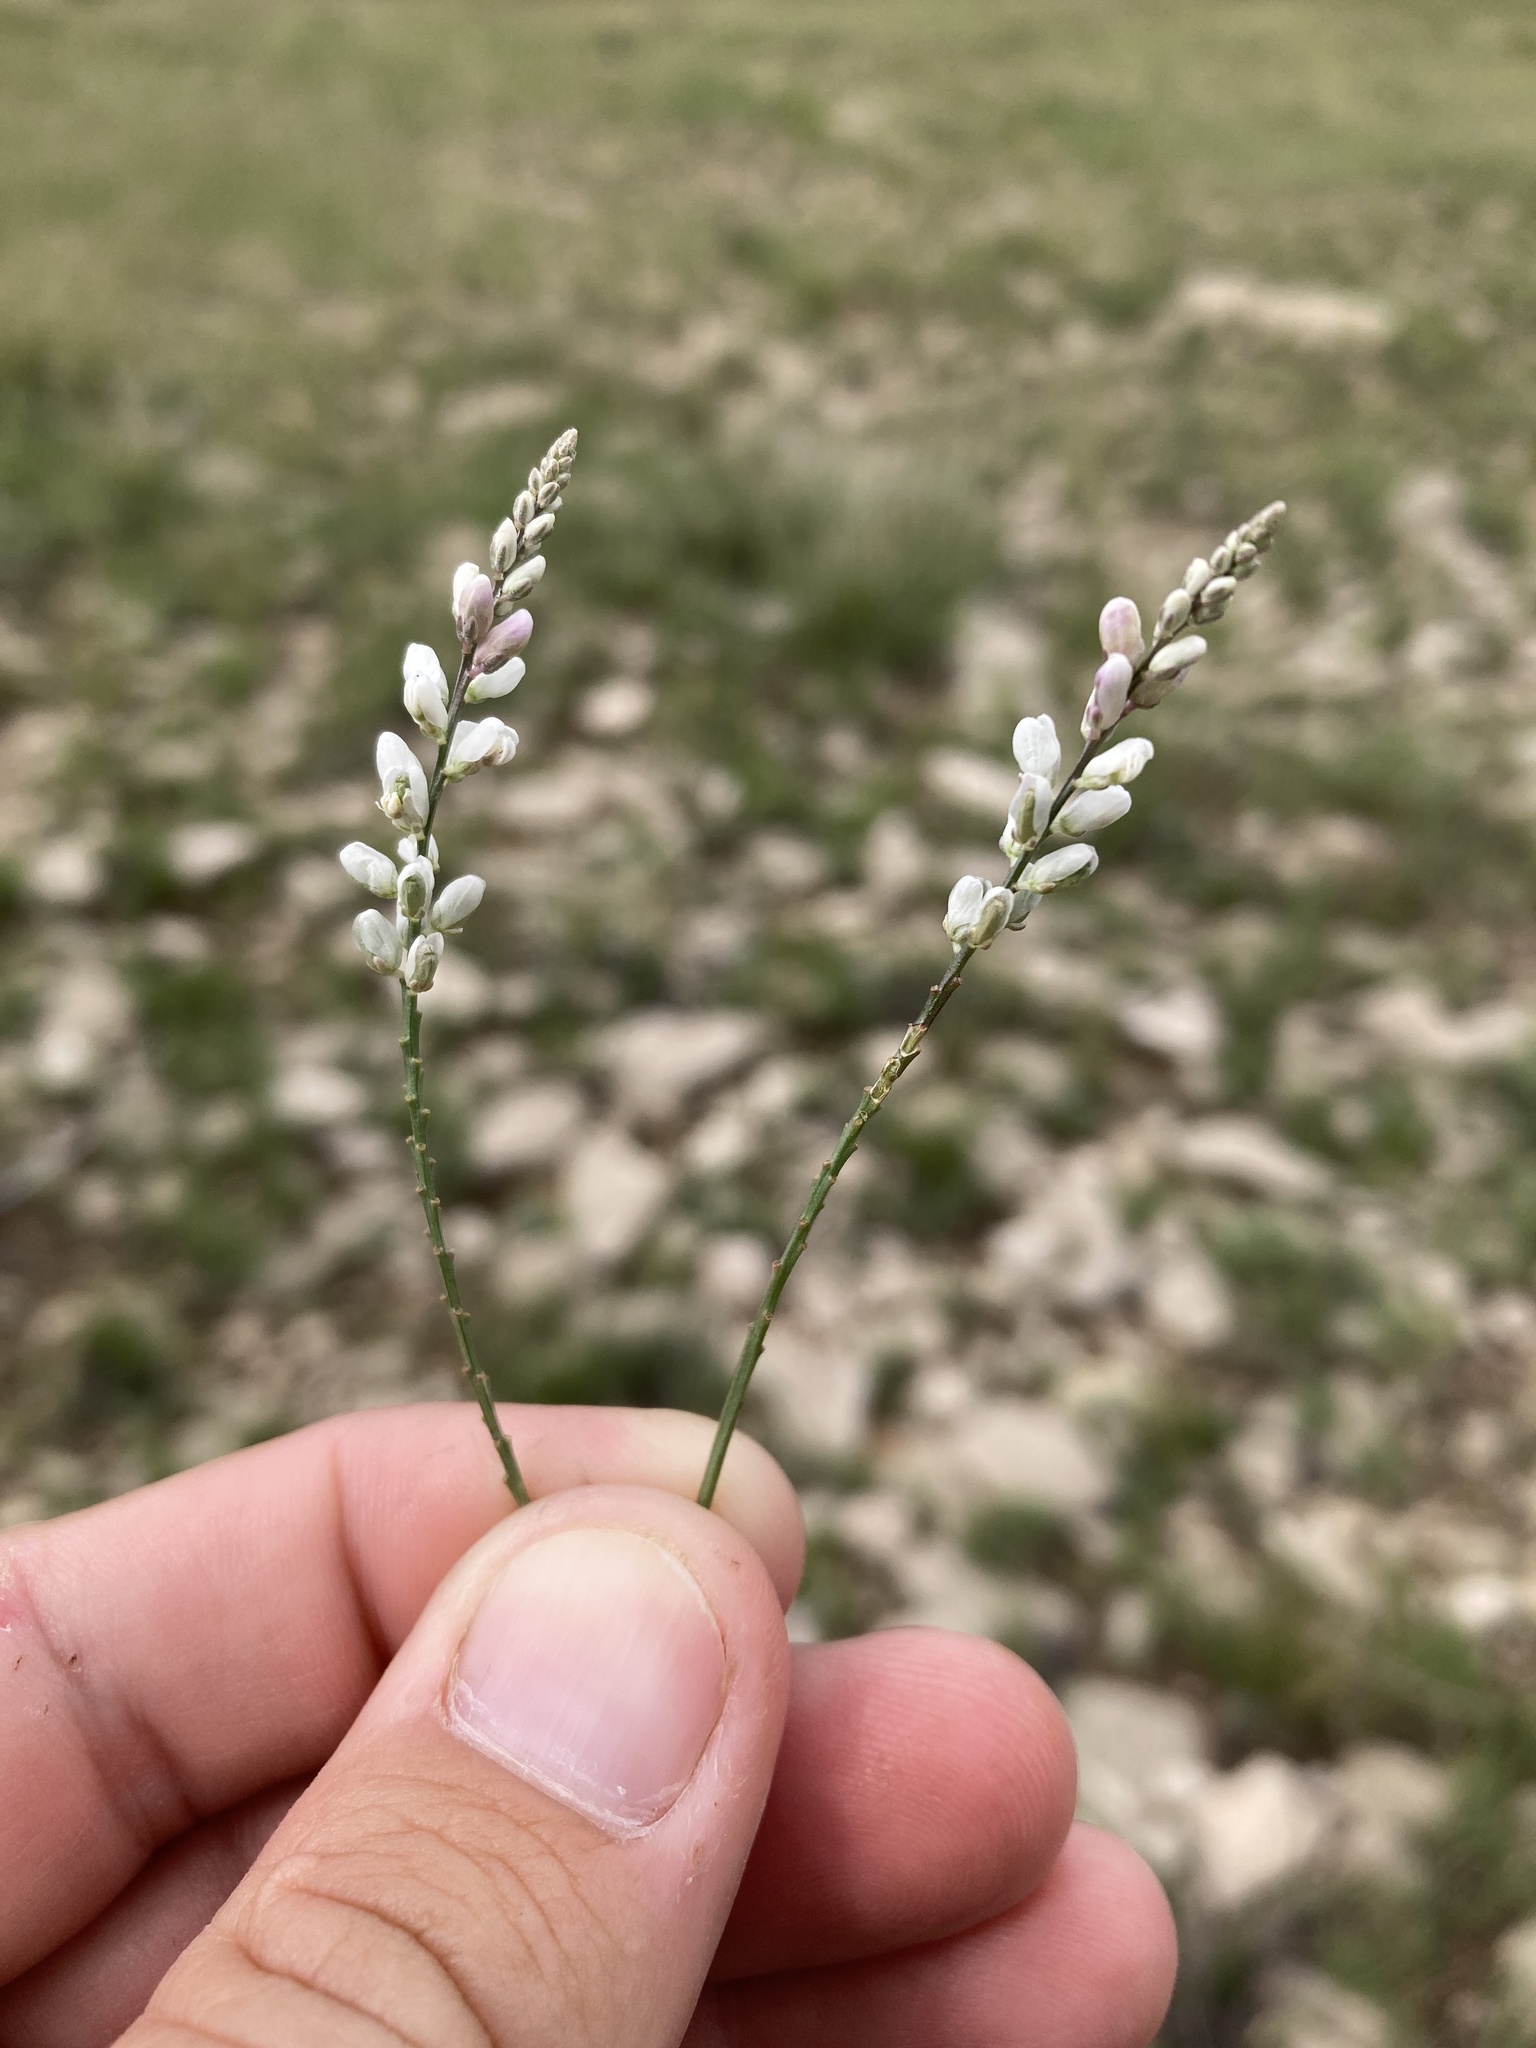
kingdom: Plantae
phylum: Tracheophyta
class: Magnoliopsida
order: Fabales
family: Polygalaceae
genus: Polygala
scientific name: Polygala alba
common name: White milkwort
